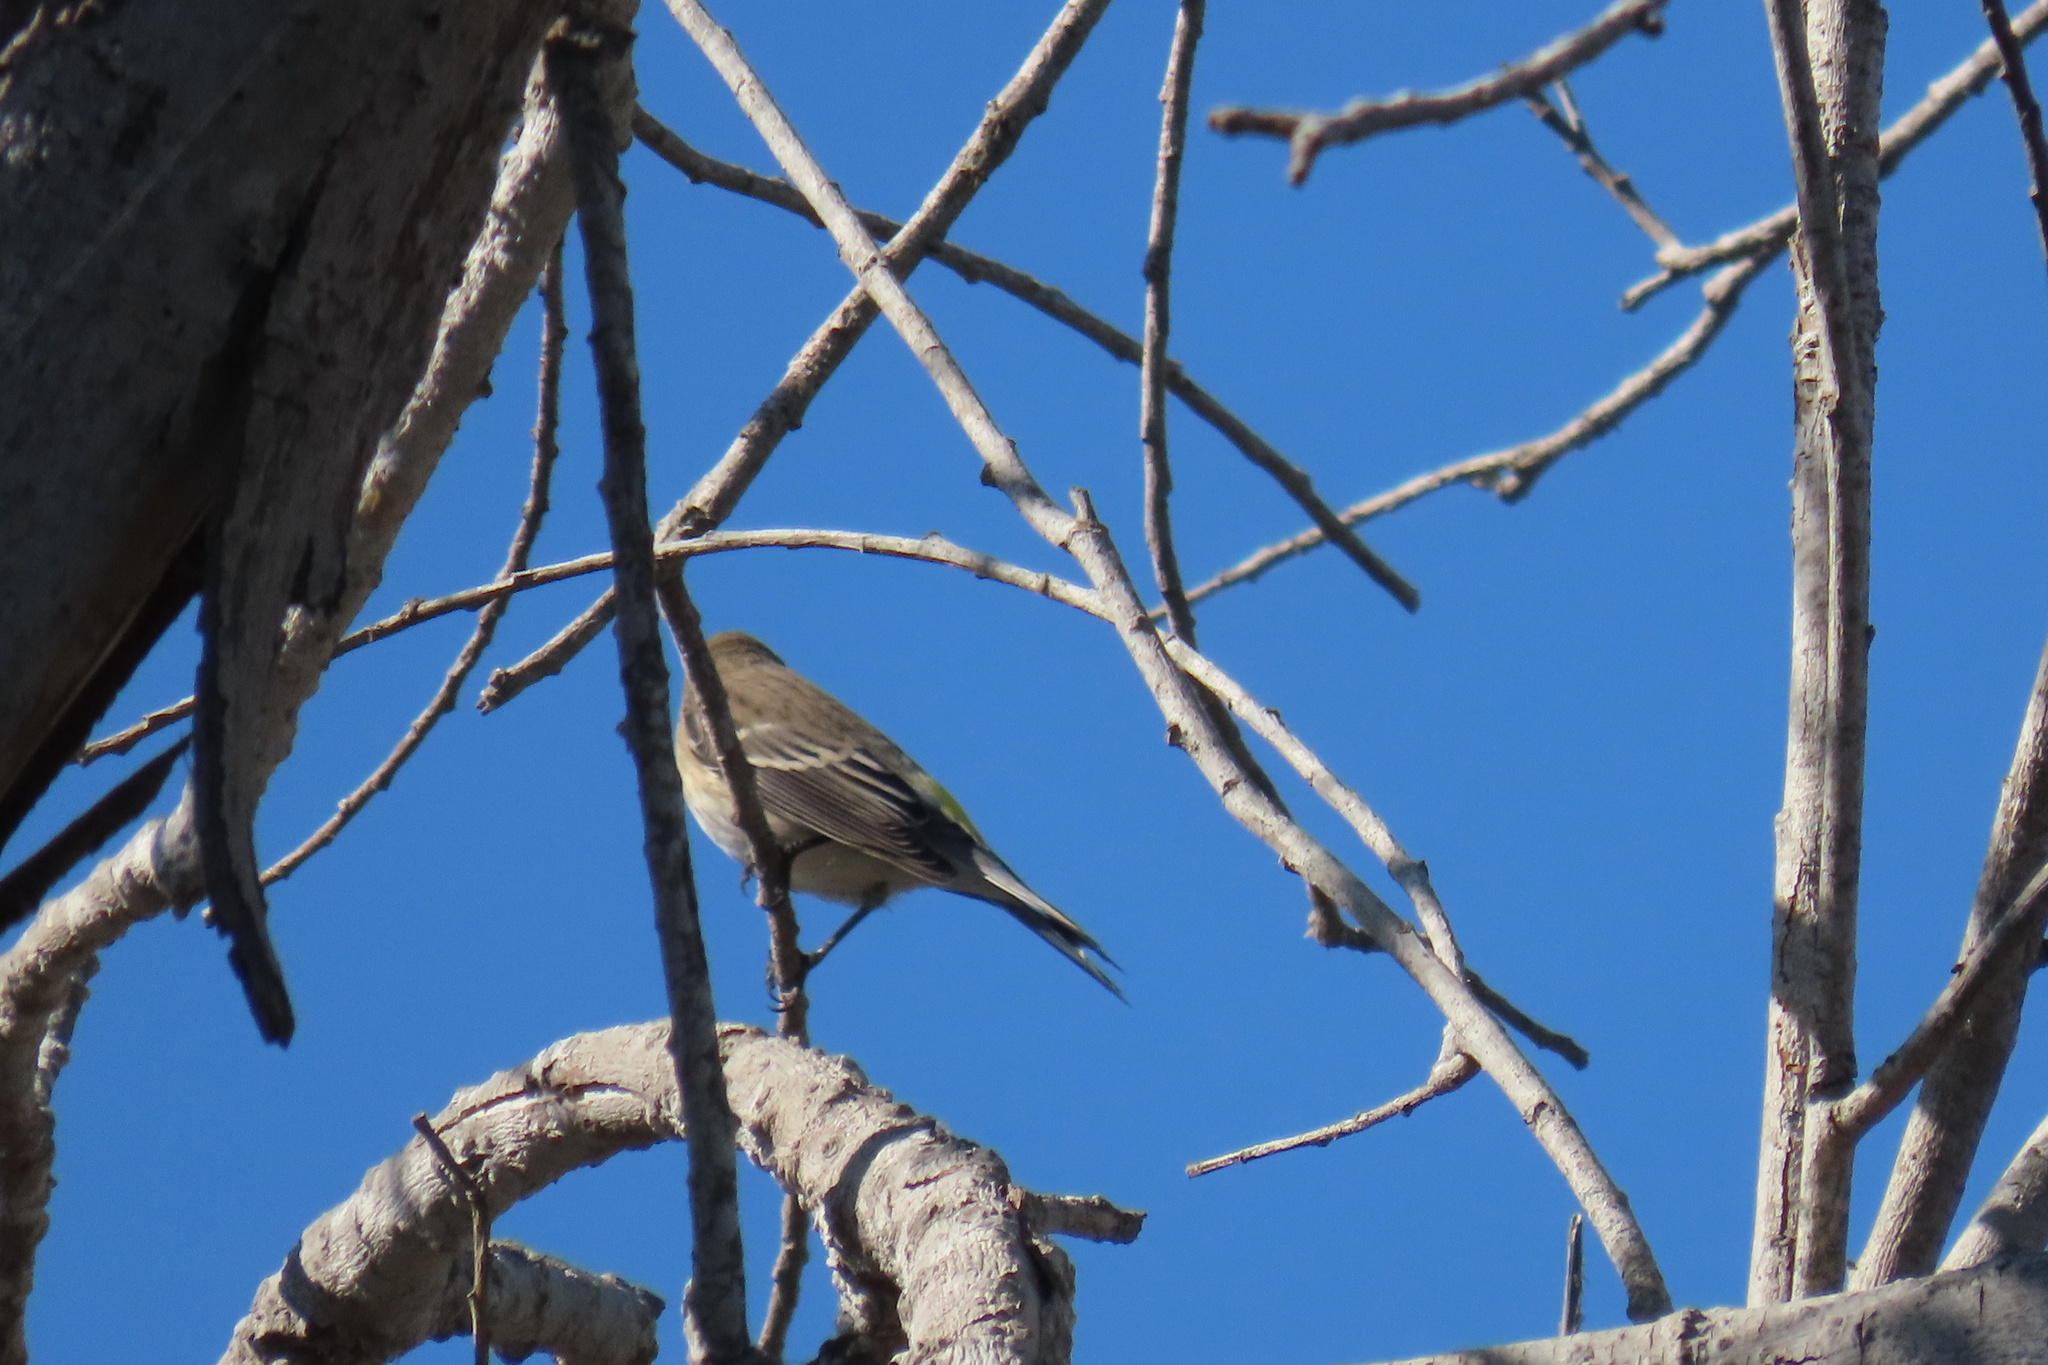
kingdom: Animalia
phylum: Chordata
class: Aves
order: Passeriformes
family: Parulidae
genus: Setophaga
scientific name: Setophaga coronata
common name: Myrtle warbler
